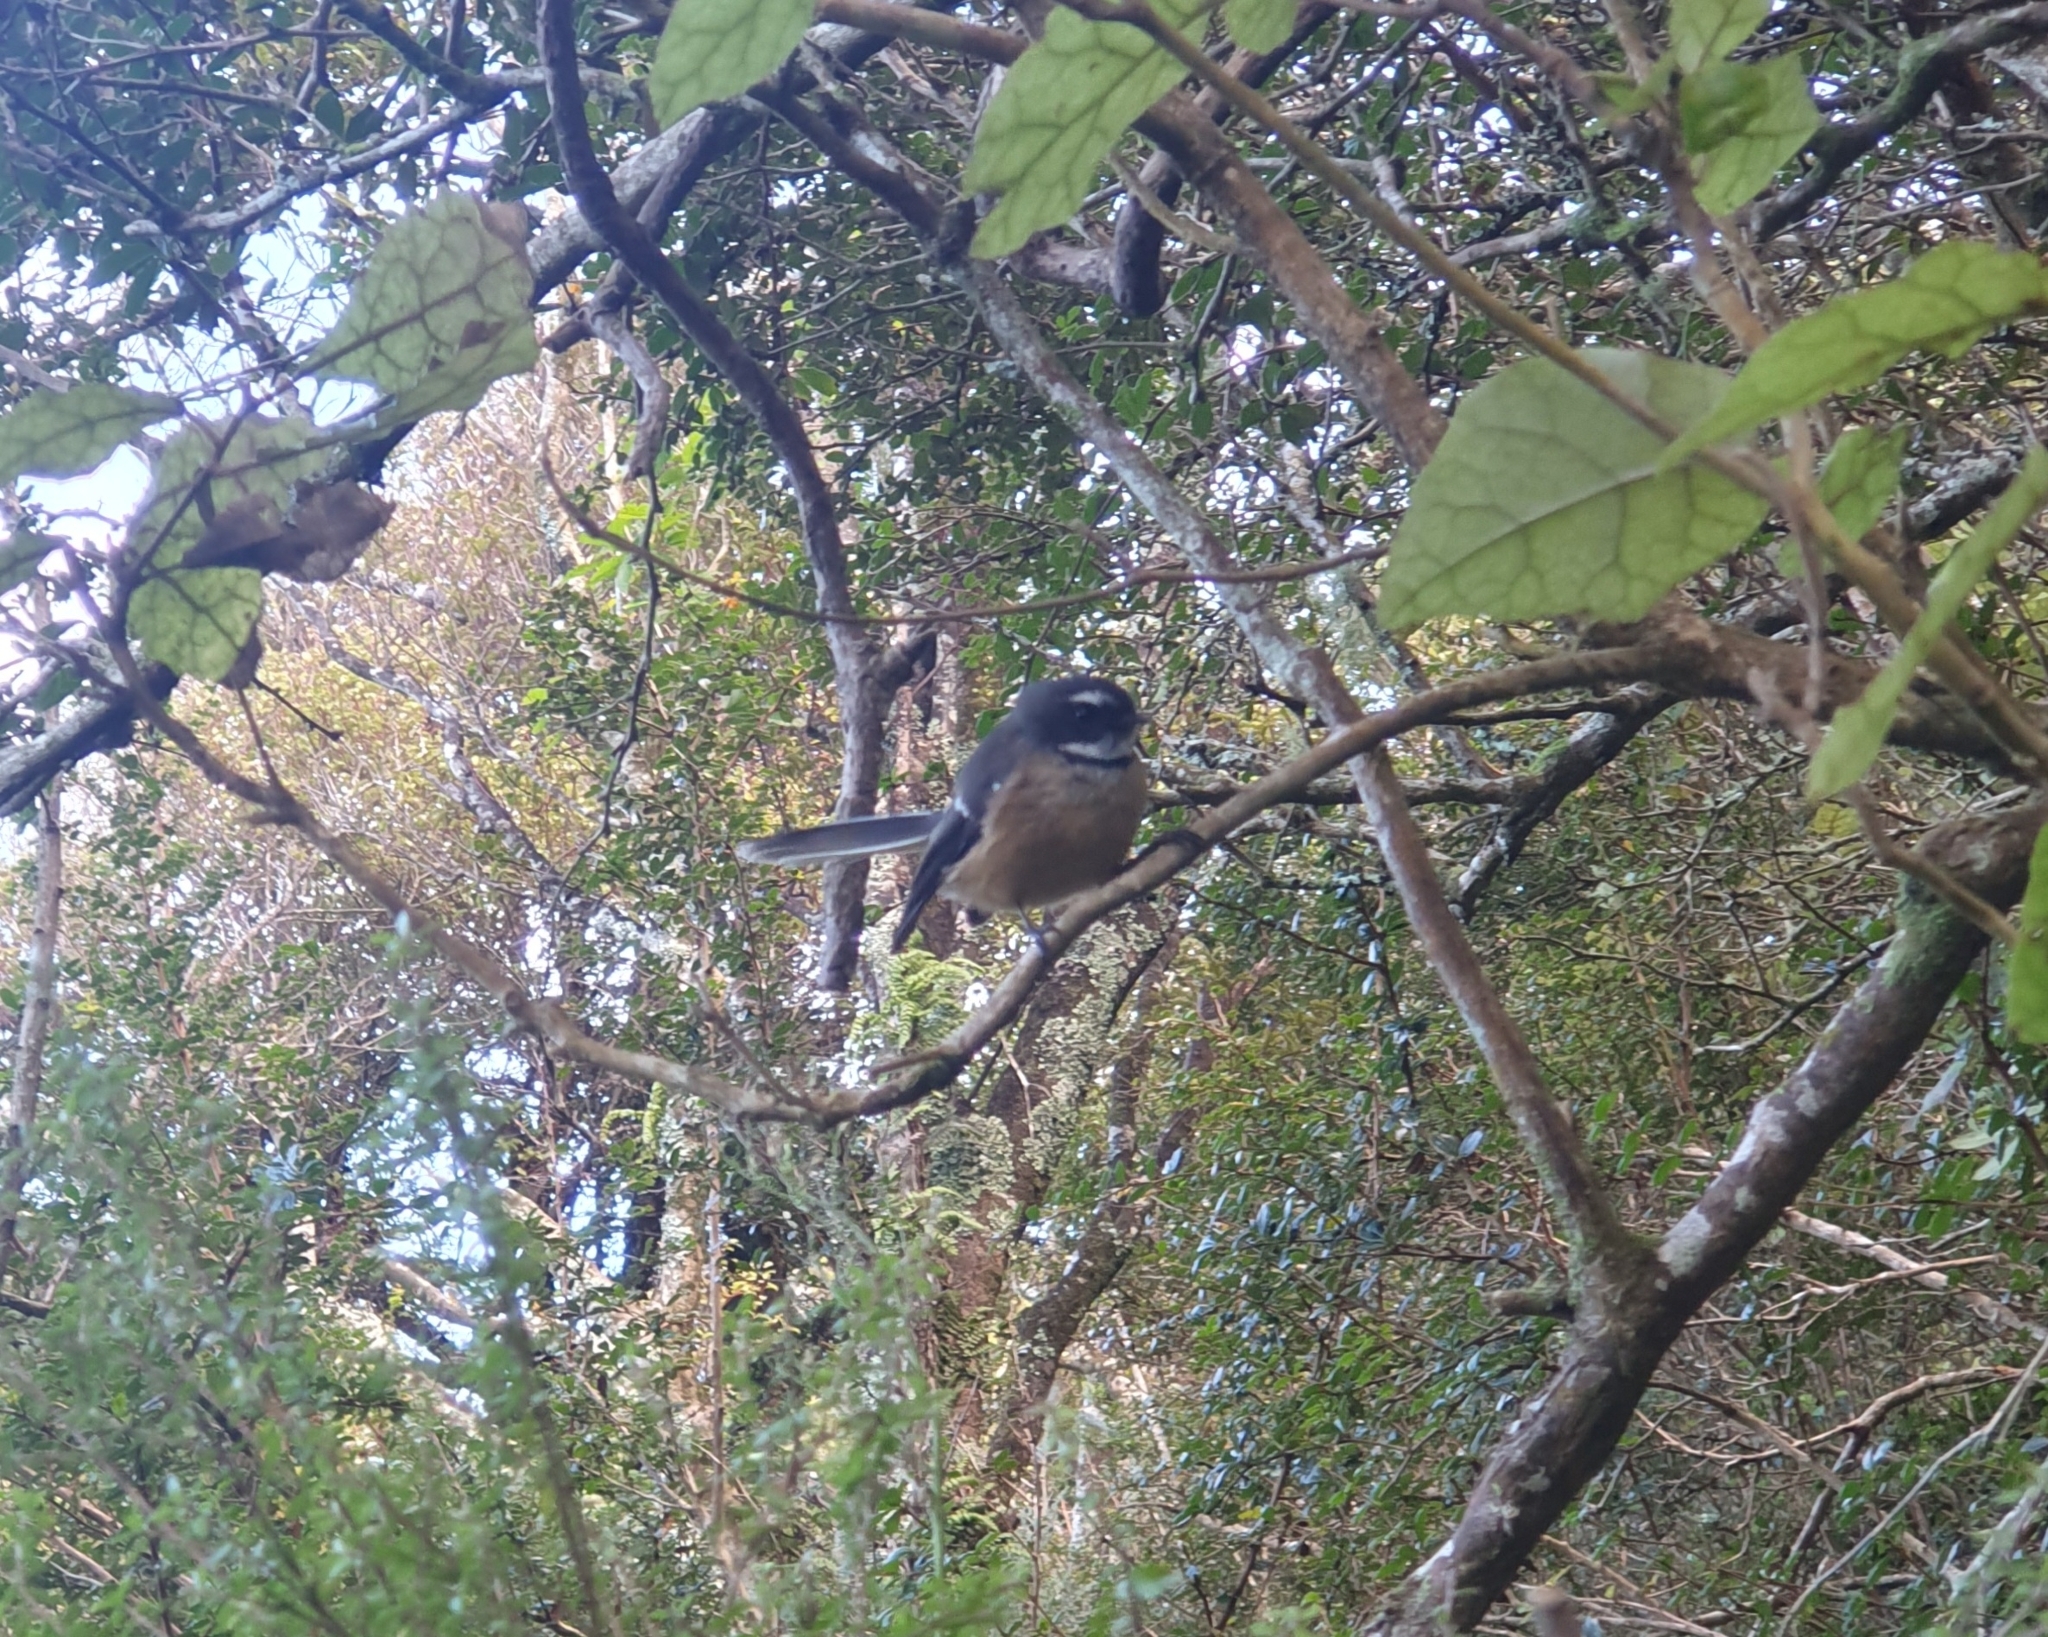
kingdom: Animalia
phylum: Chordata
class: Aves
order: Passeriformes
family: Rhipiduridae
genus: Rhipidura
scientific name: Rhipidura fuliginosa
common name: New zealand fantail
